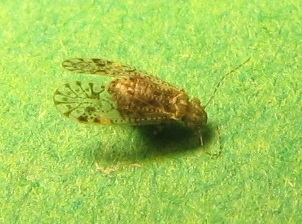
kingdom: Animalia
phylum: Arthropoda
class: Insecta
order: Psocodea
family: Philotarsidae
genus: Aaroniella
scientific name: Aaroniella badonneli
